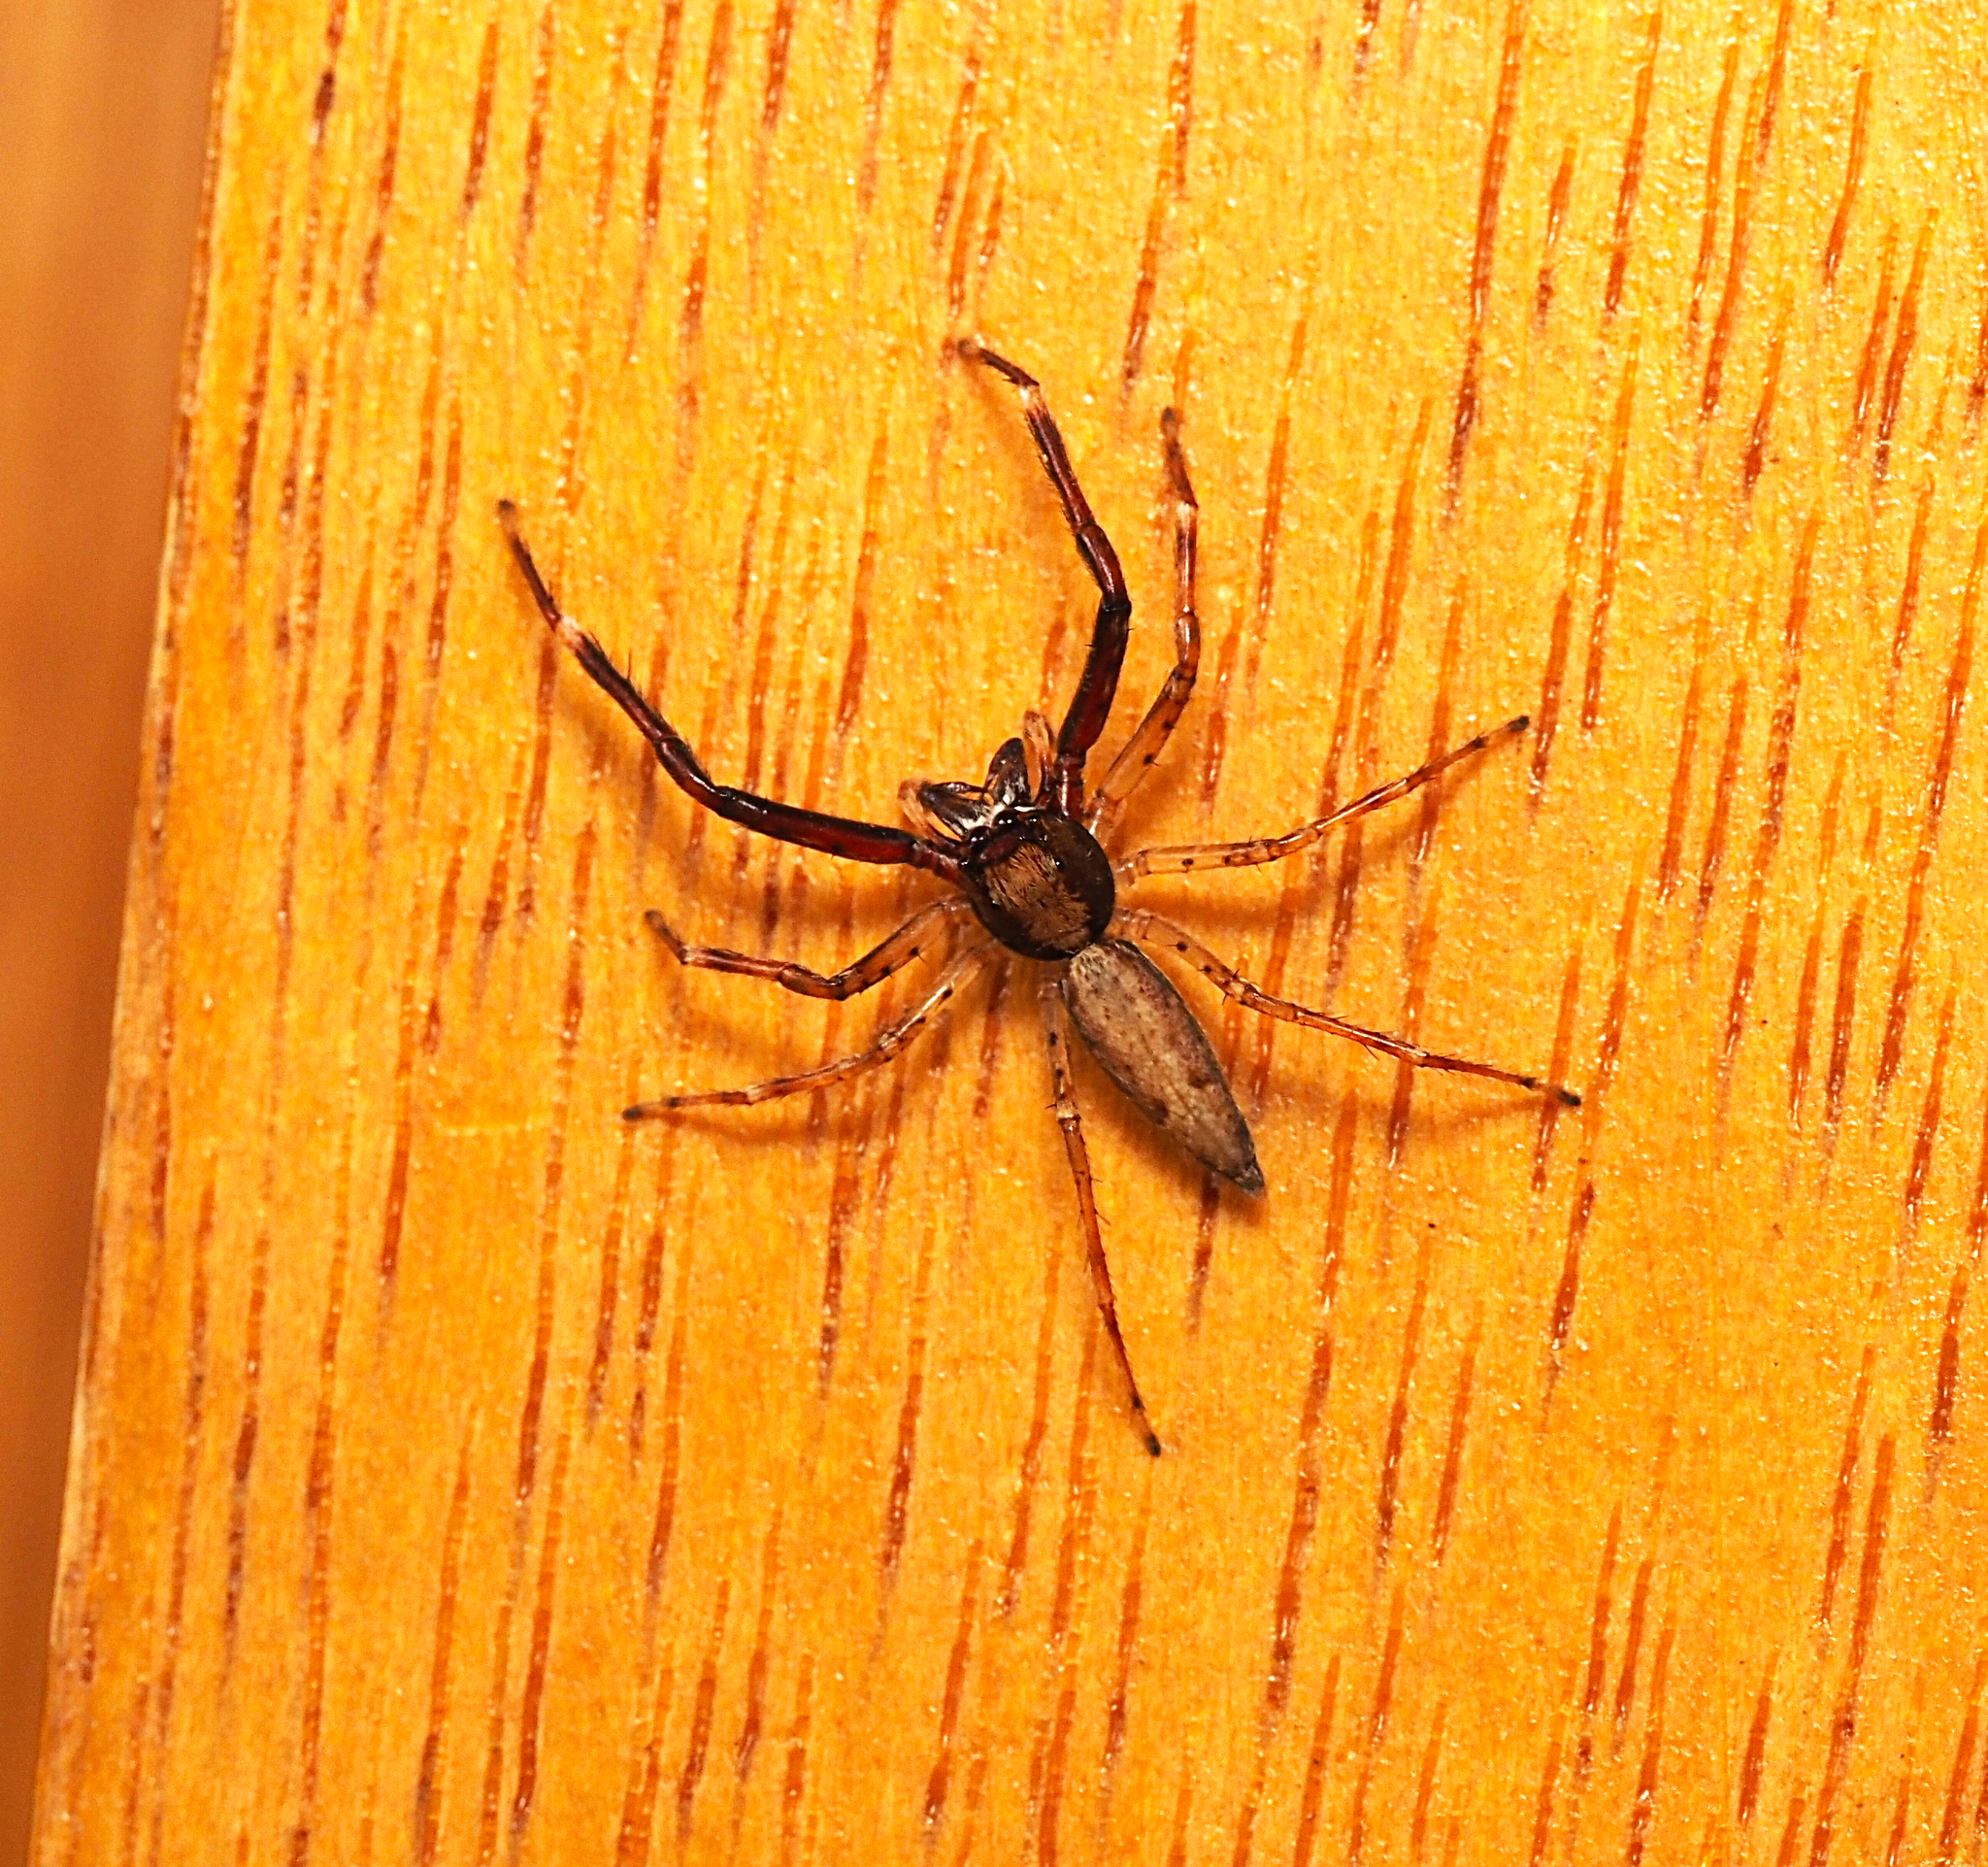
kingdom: Animalia
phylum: Arthropoda
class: Arachnida
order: Araneae
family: Salticidae
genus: Helpis
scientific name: Helpis minitabunda
